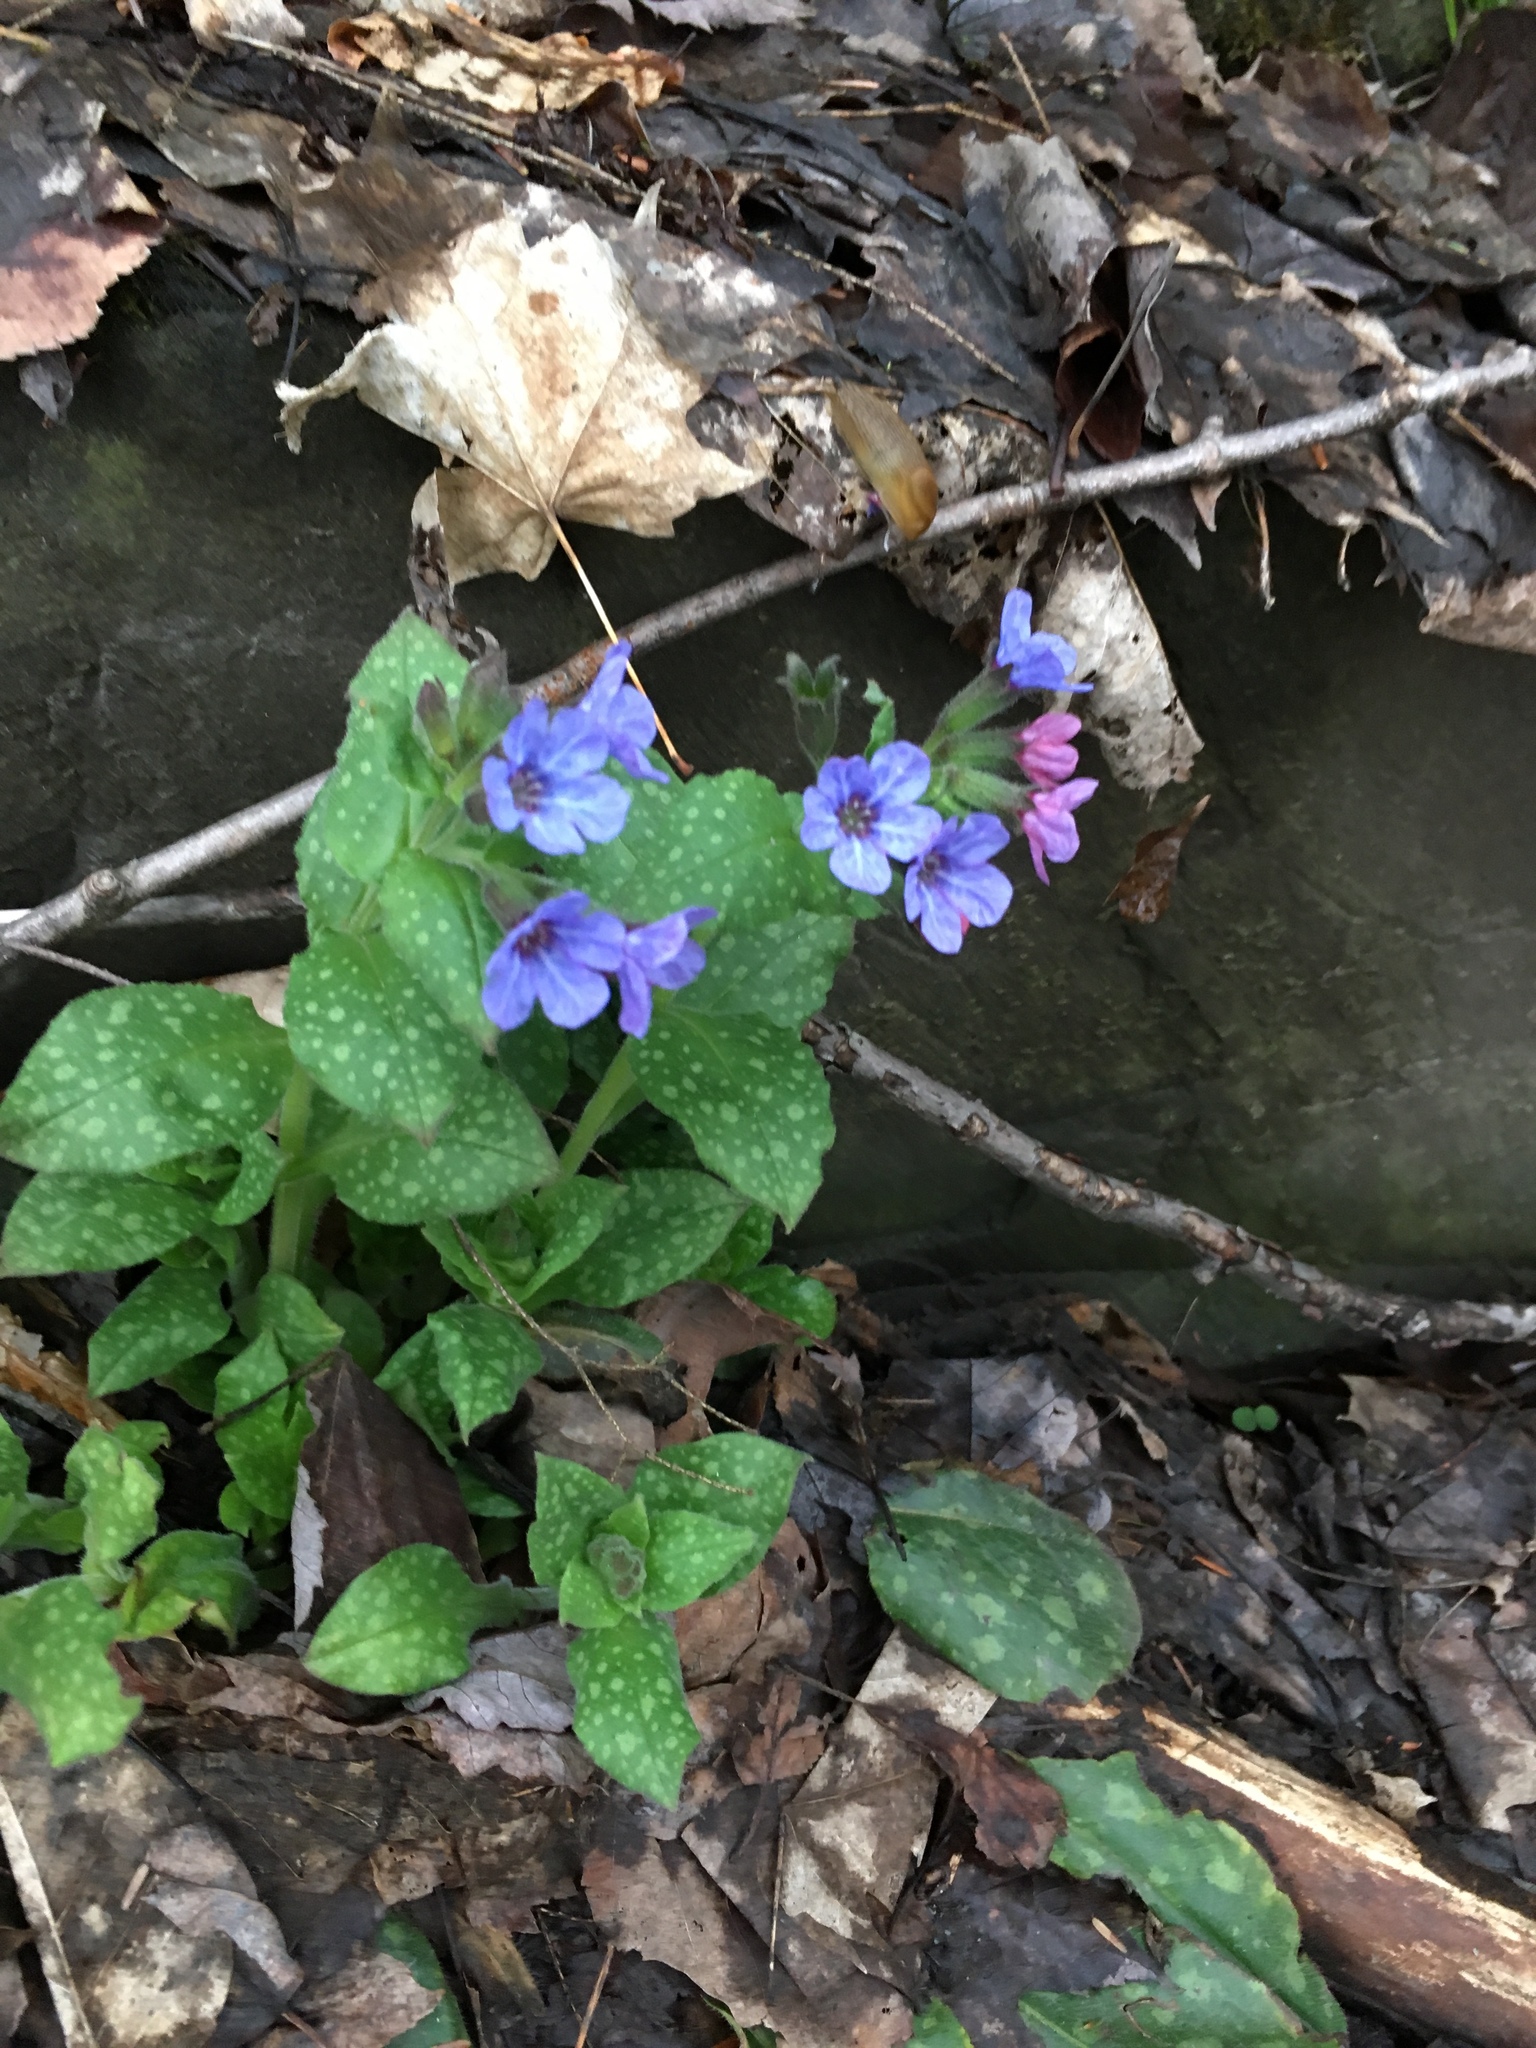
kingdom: Plantae
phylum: Tracheophyta
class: Magnoliopsida
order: Boraginales
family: Boraginaceae
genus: Pulmonaria
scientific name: Pulmonaria officinalis
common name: Lungwort
